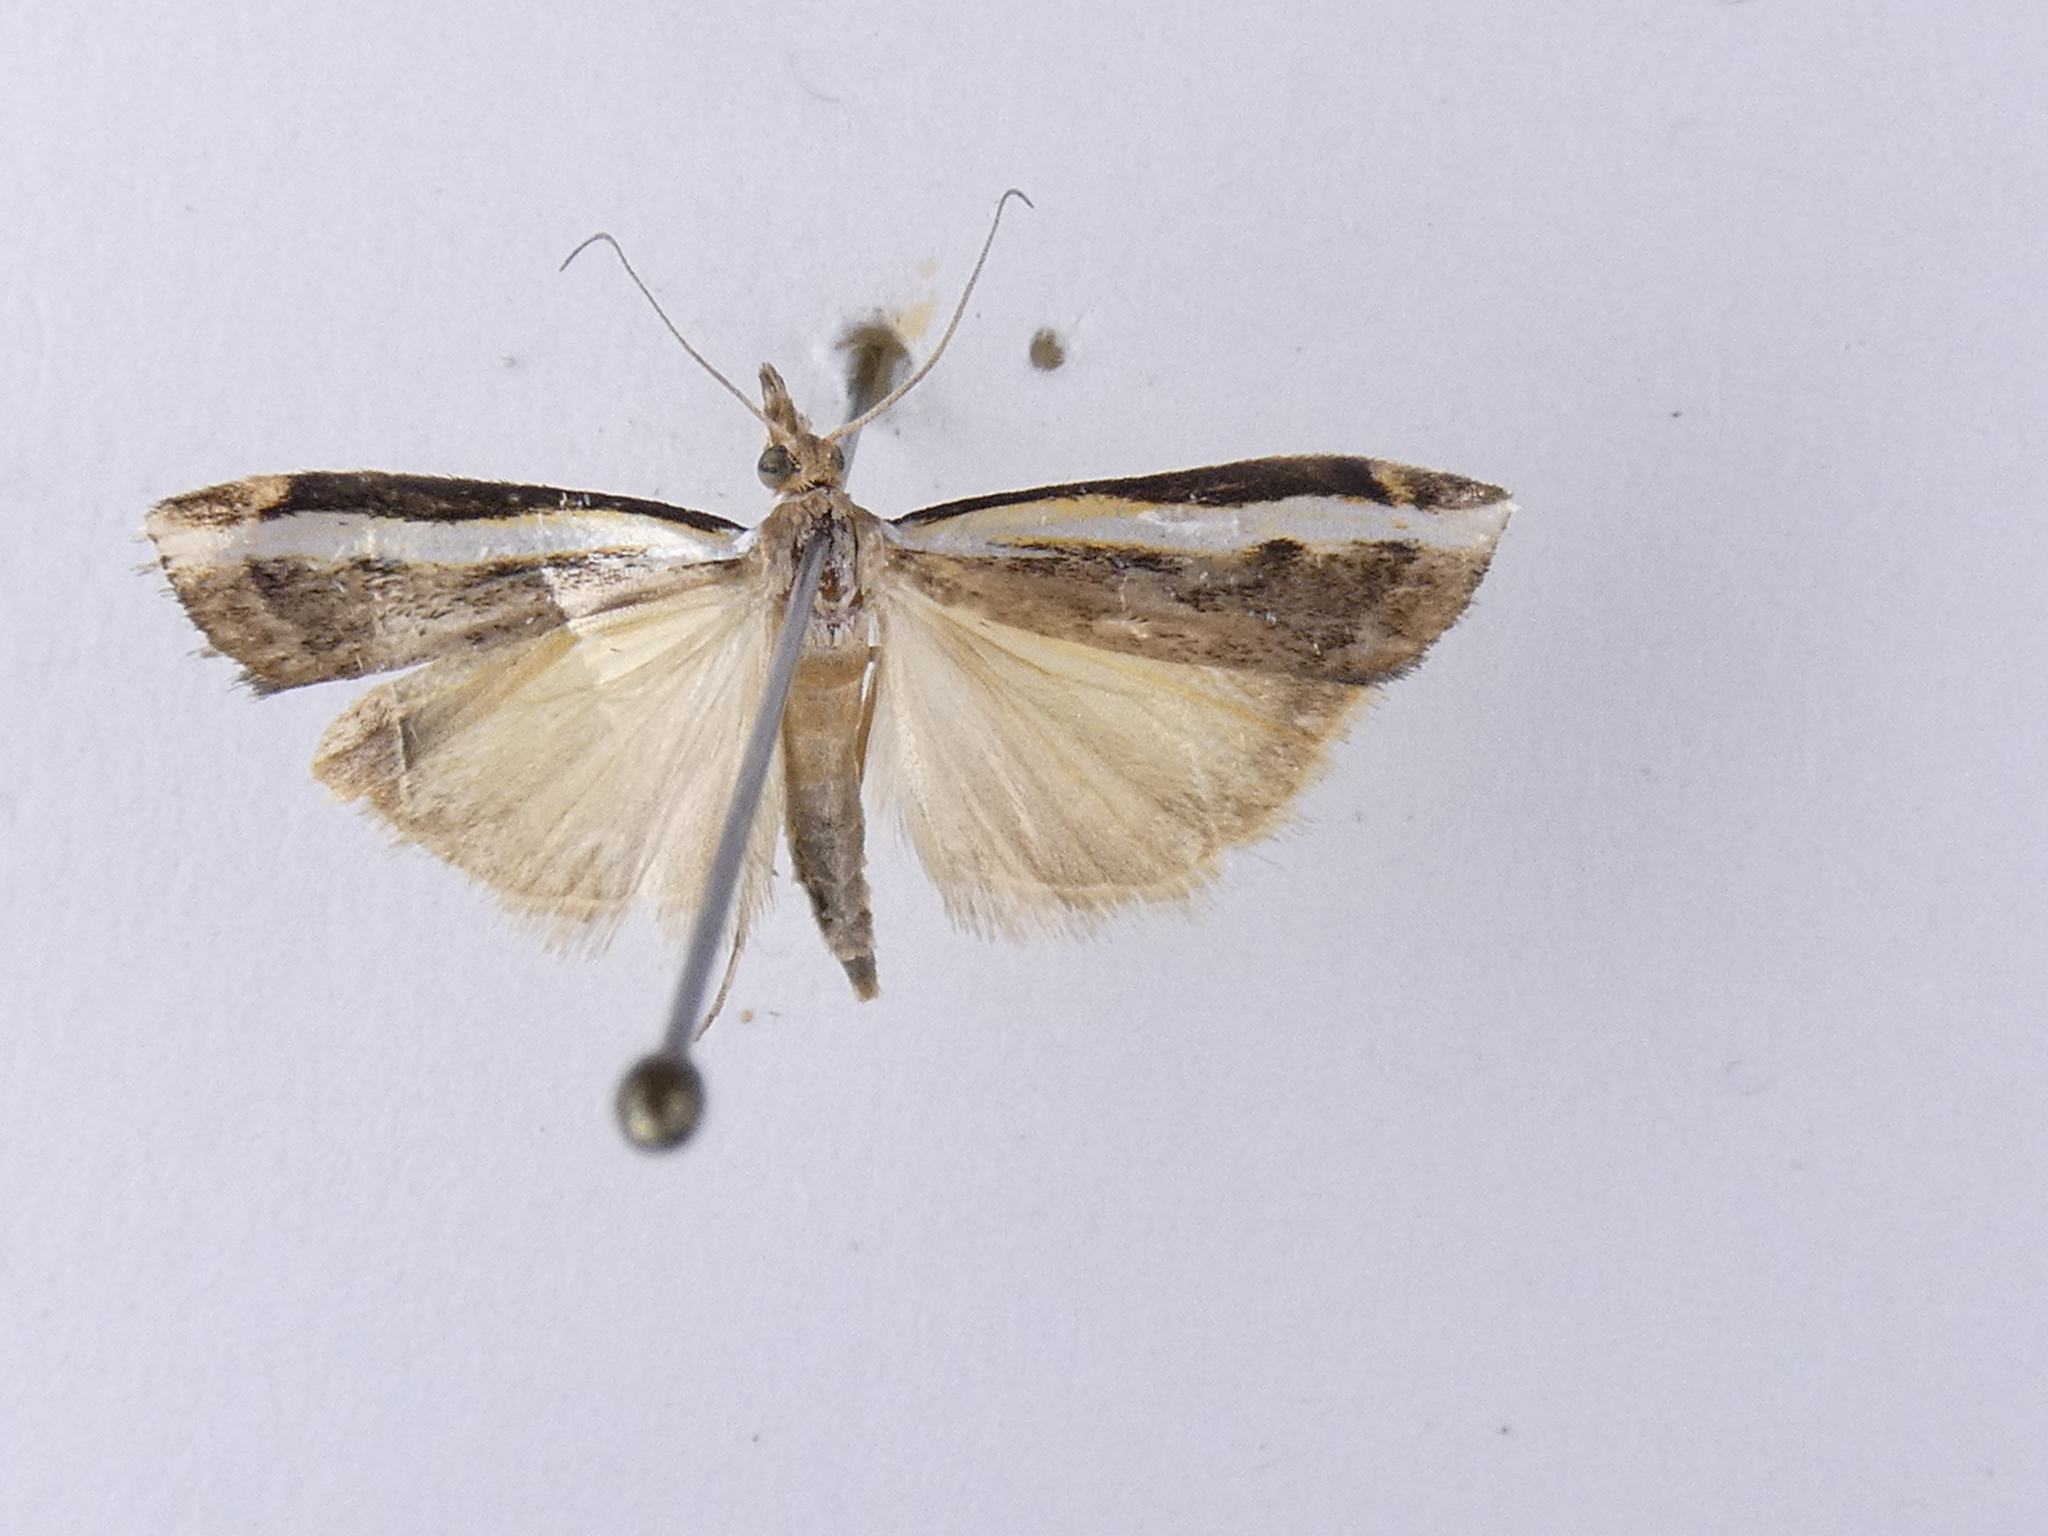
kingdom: Animalia
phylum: Arthropoda
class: Insecta
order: Lepidoptera
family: Crambidae
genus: Orocrambus
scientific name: Orocrambus flexuosellus
